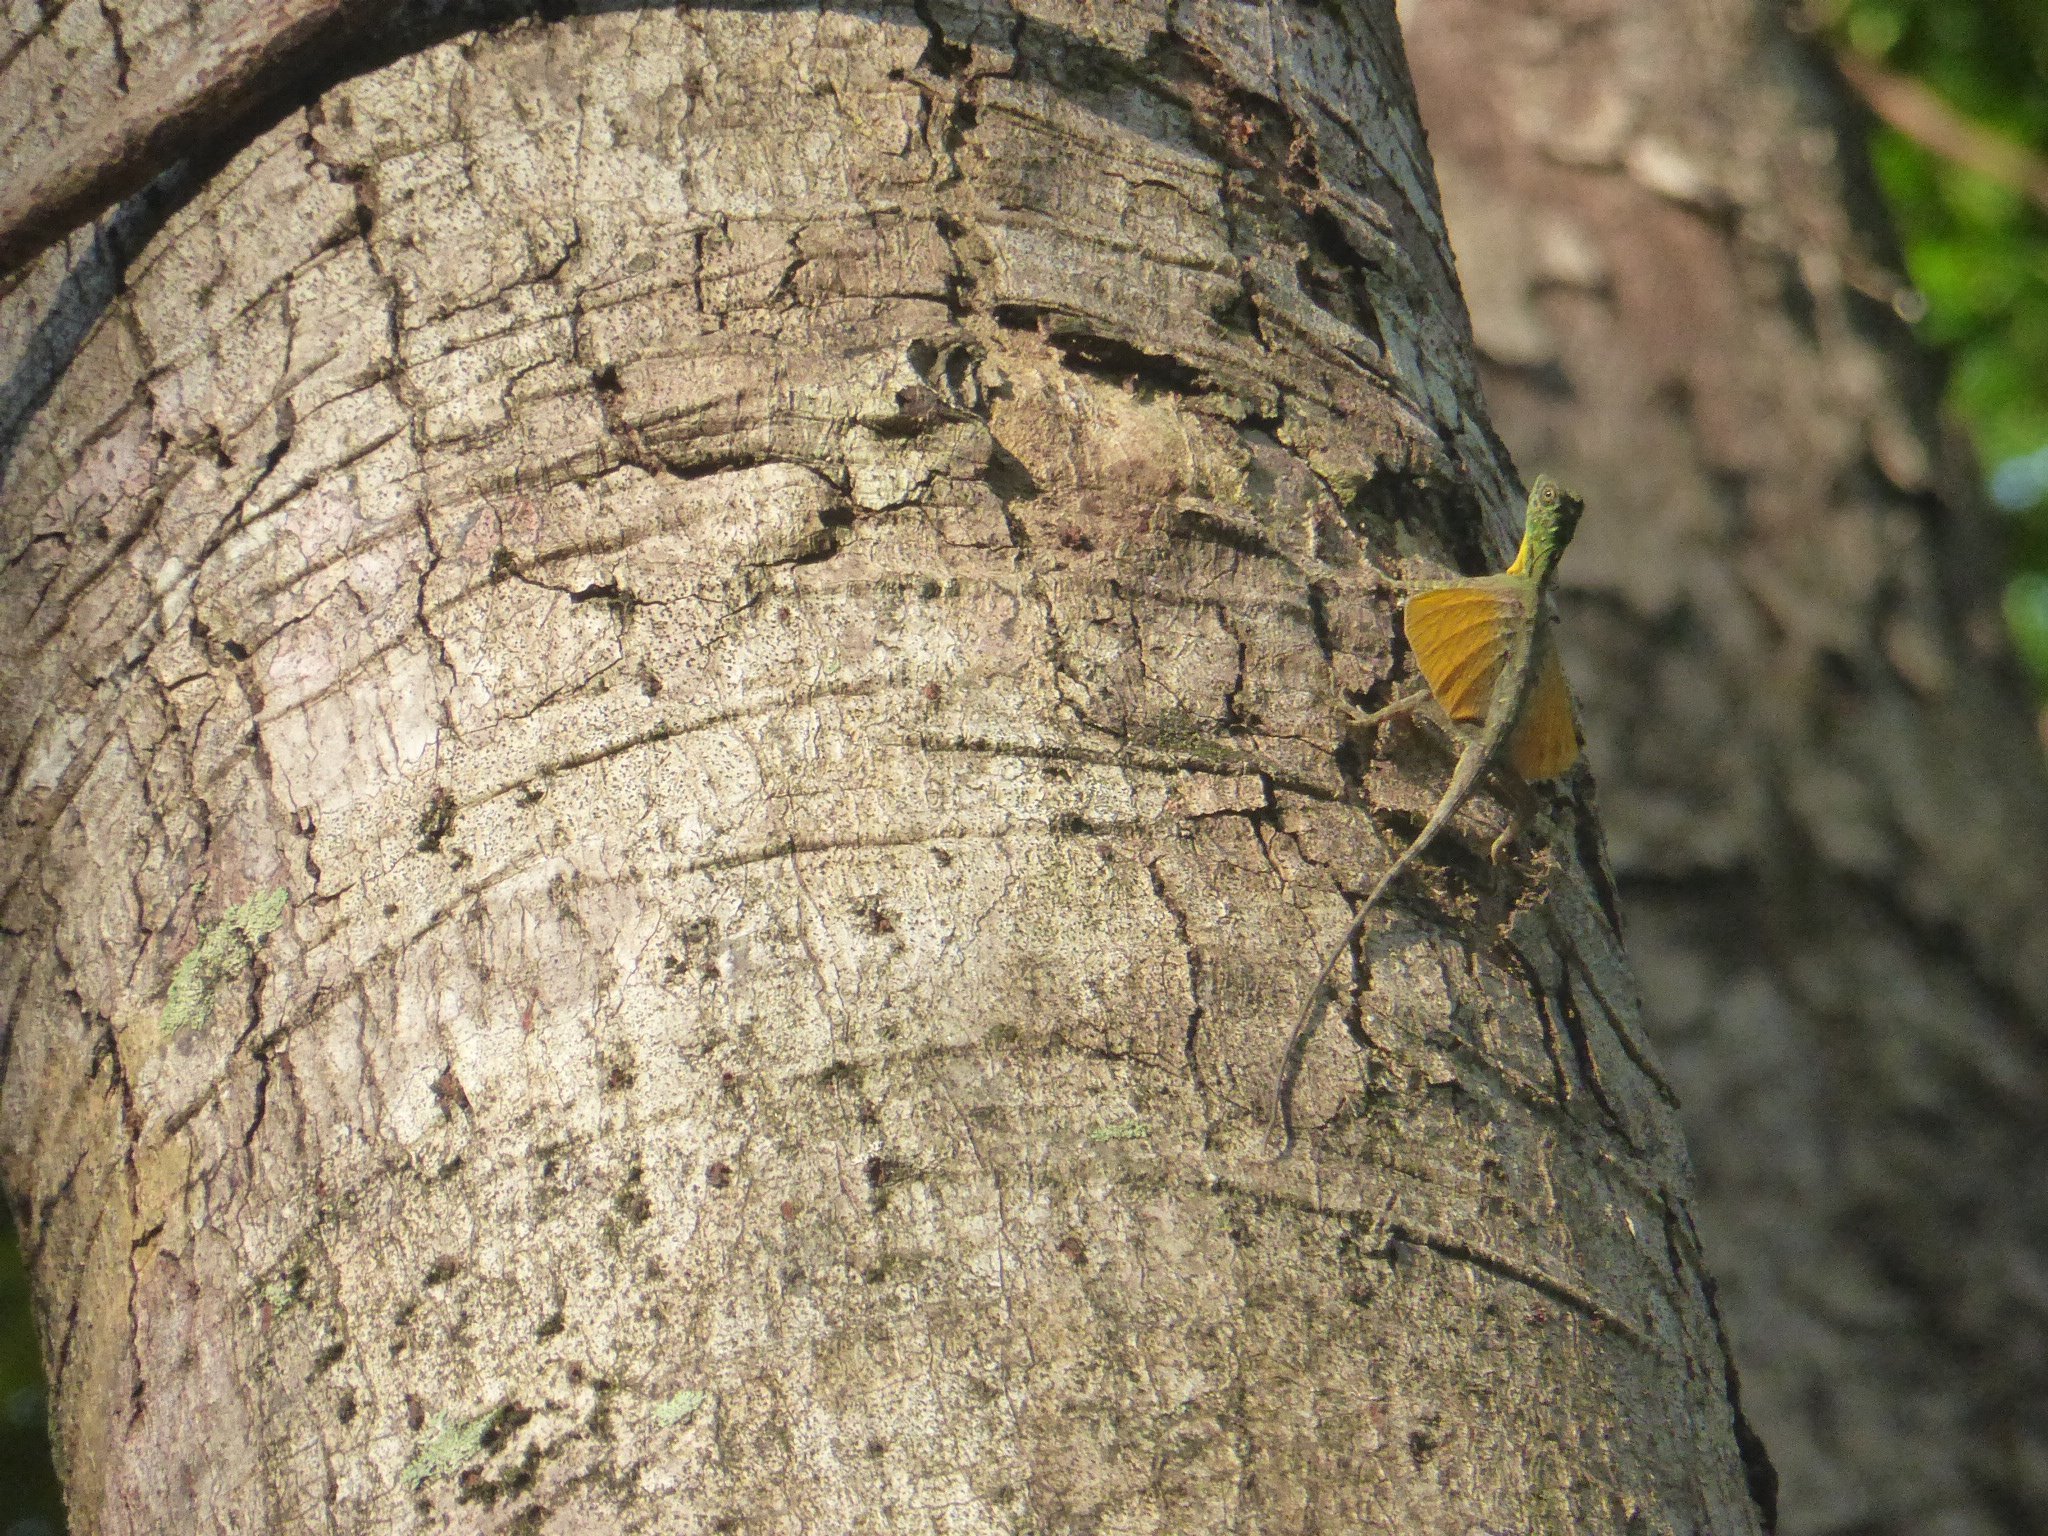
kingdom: Animalia
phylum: Chordata
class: Squamata
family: Agamidae
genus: Draco
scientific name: Draco spilonotus
